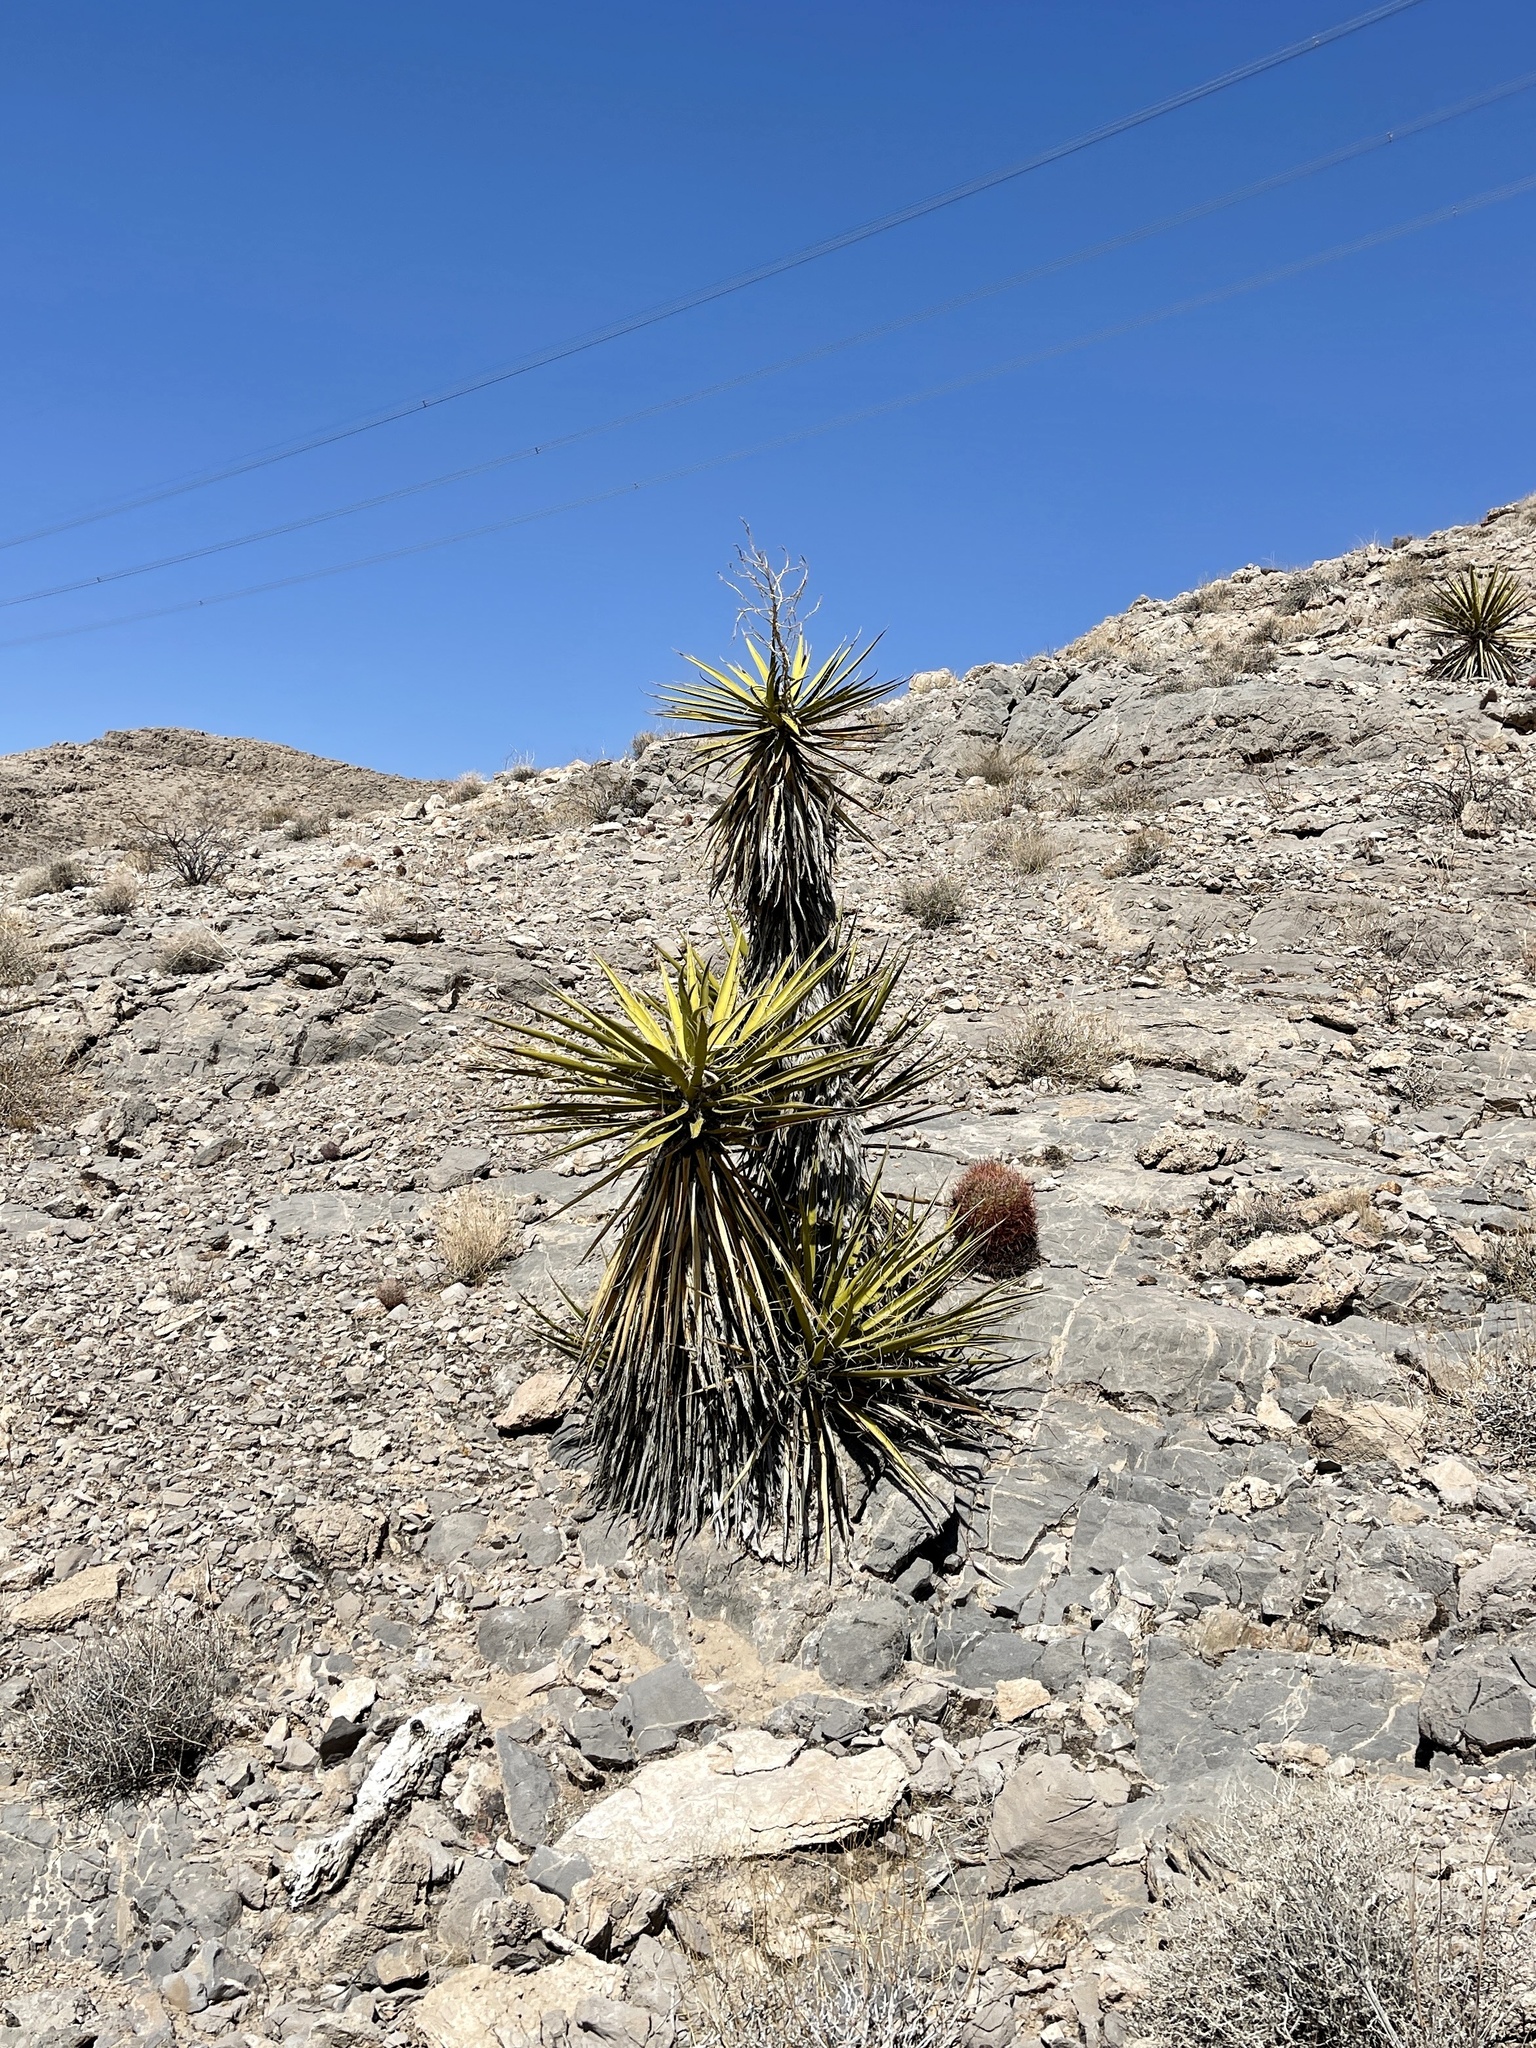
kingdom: Plantae
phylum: Tracheophyta
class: Liliopsida
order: Asparagales
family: Asparagaceae
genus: Yucca
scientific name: Yucca schidigera
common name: Mojave yucca
